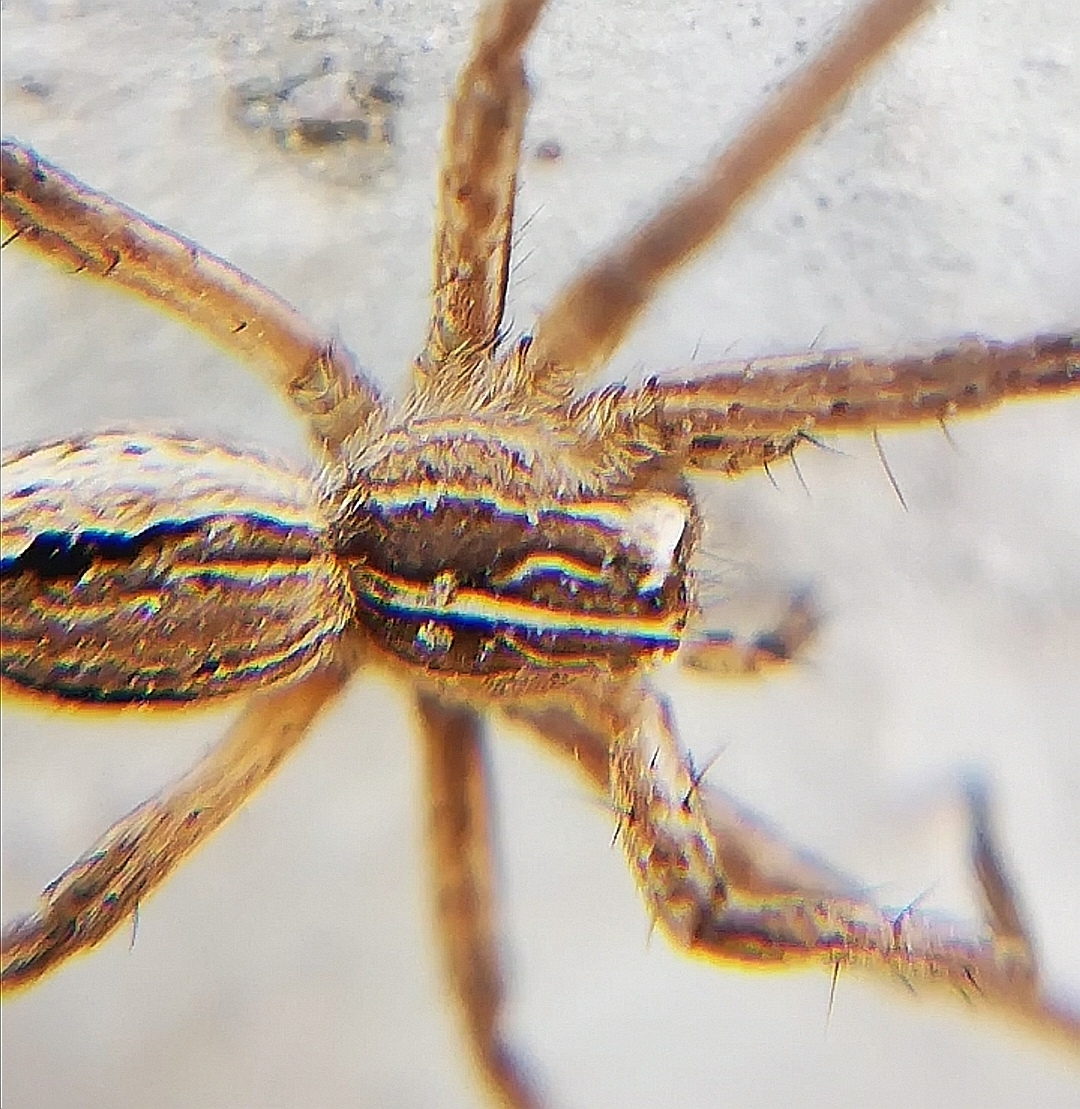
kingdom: Animalia
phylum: Arthropoda
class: Arachnida
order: Araneae
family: Pisauridae
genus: Pisaura
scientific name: Pisaura mirabilis
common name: Tent spider
